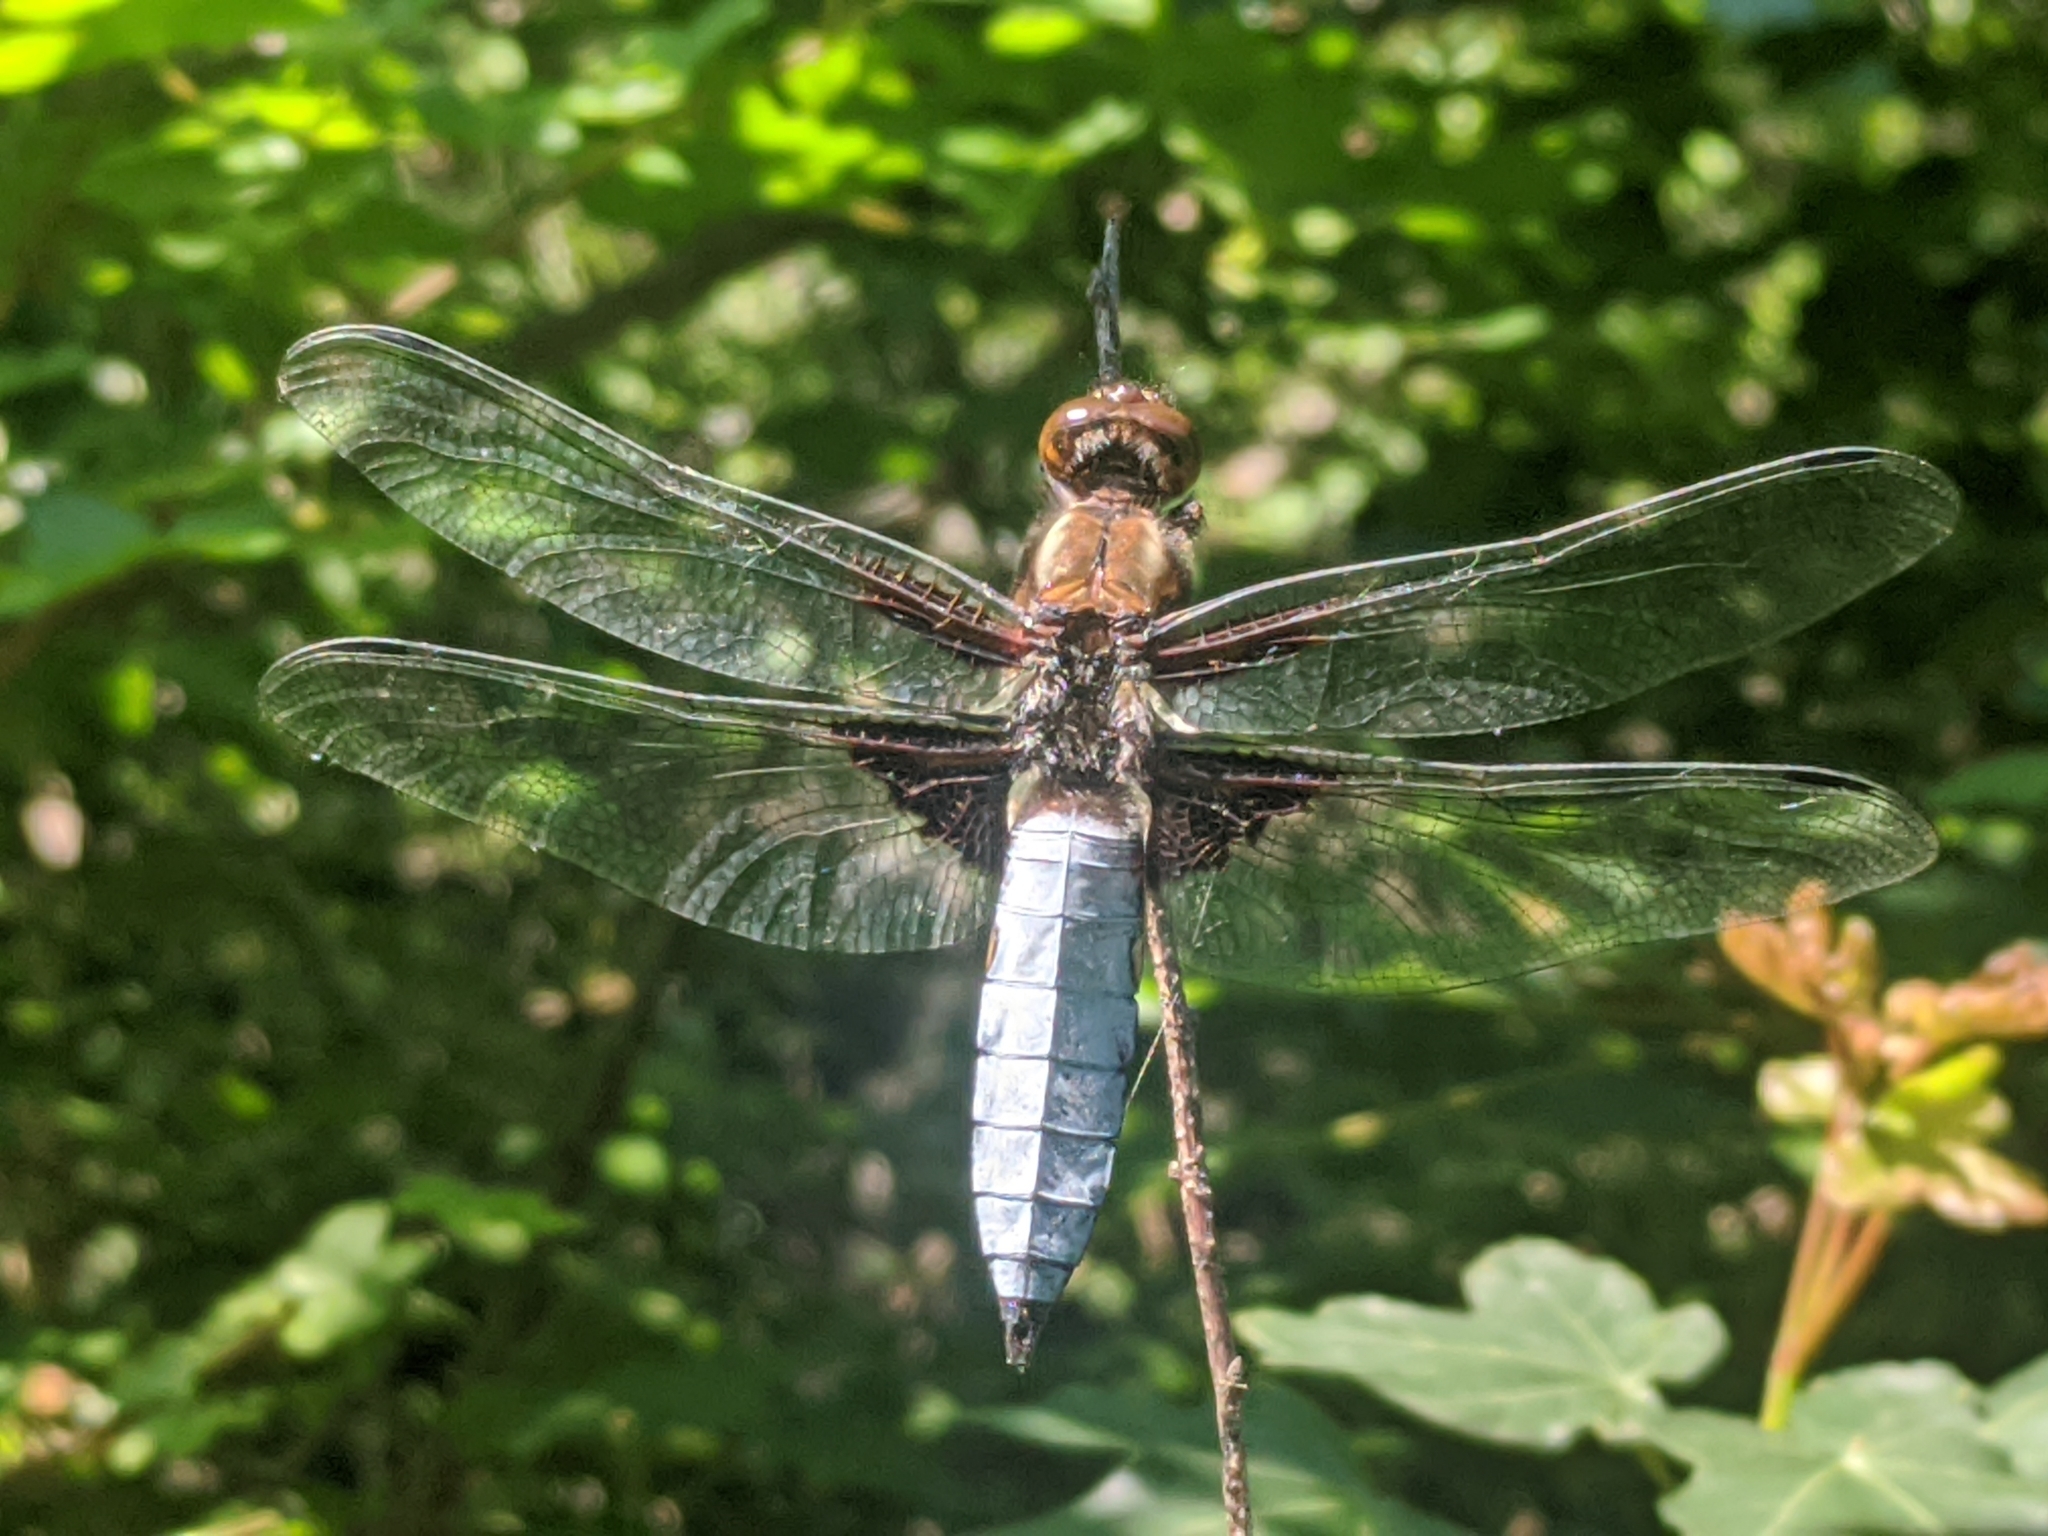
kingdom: Animalia
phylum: Arthropoda
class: Insecta
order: Odonata
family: Libellulidae
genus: Libellula
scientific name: Libellula depressa
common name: Broad-bodied chaser
